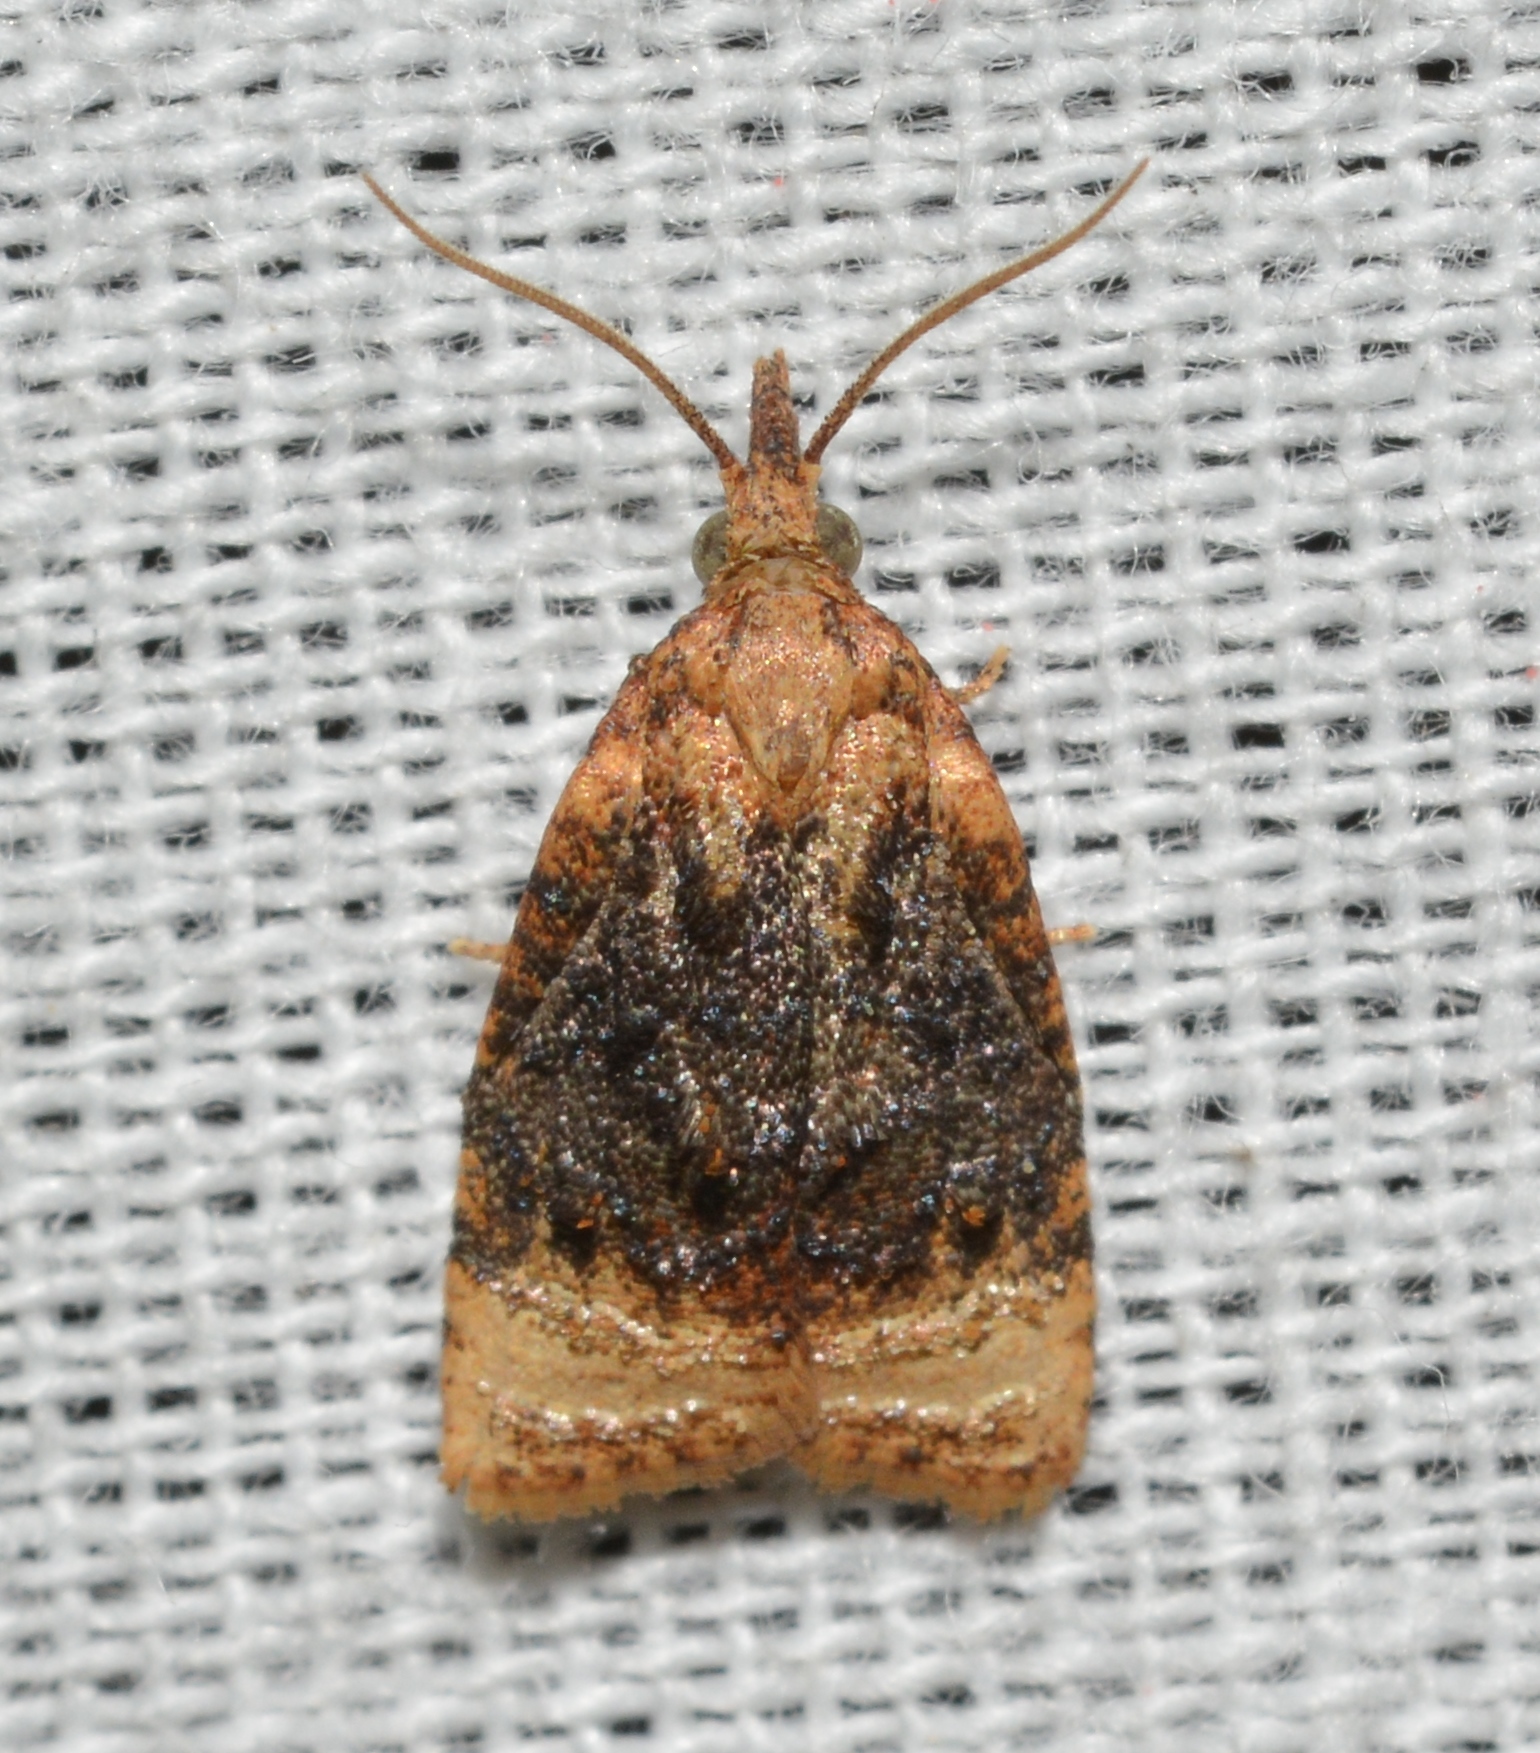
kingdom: Animalia
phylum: Arthropoda
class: Insecta
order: Lepidoptera
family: Tortricidae
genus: Platynota
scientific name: Platynota flavedana
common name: Black-shaded platynota moth
